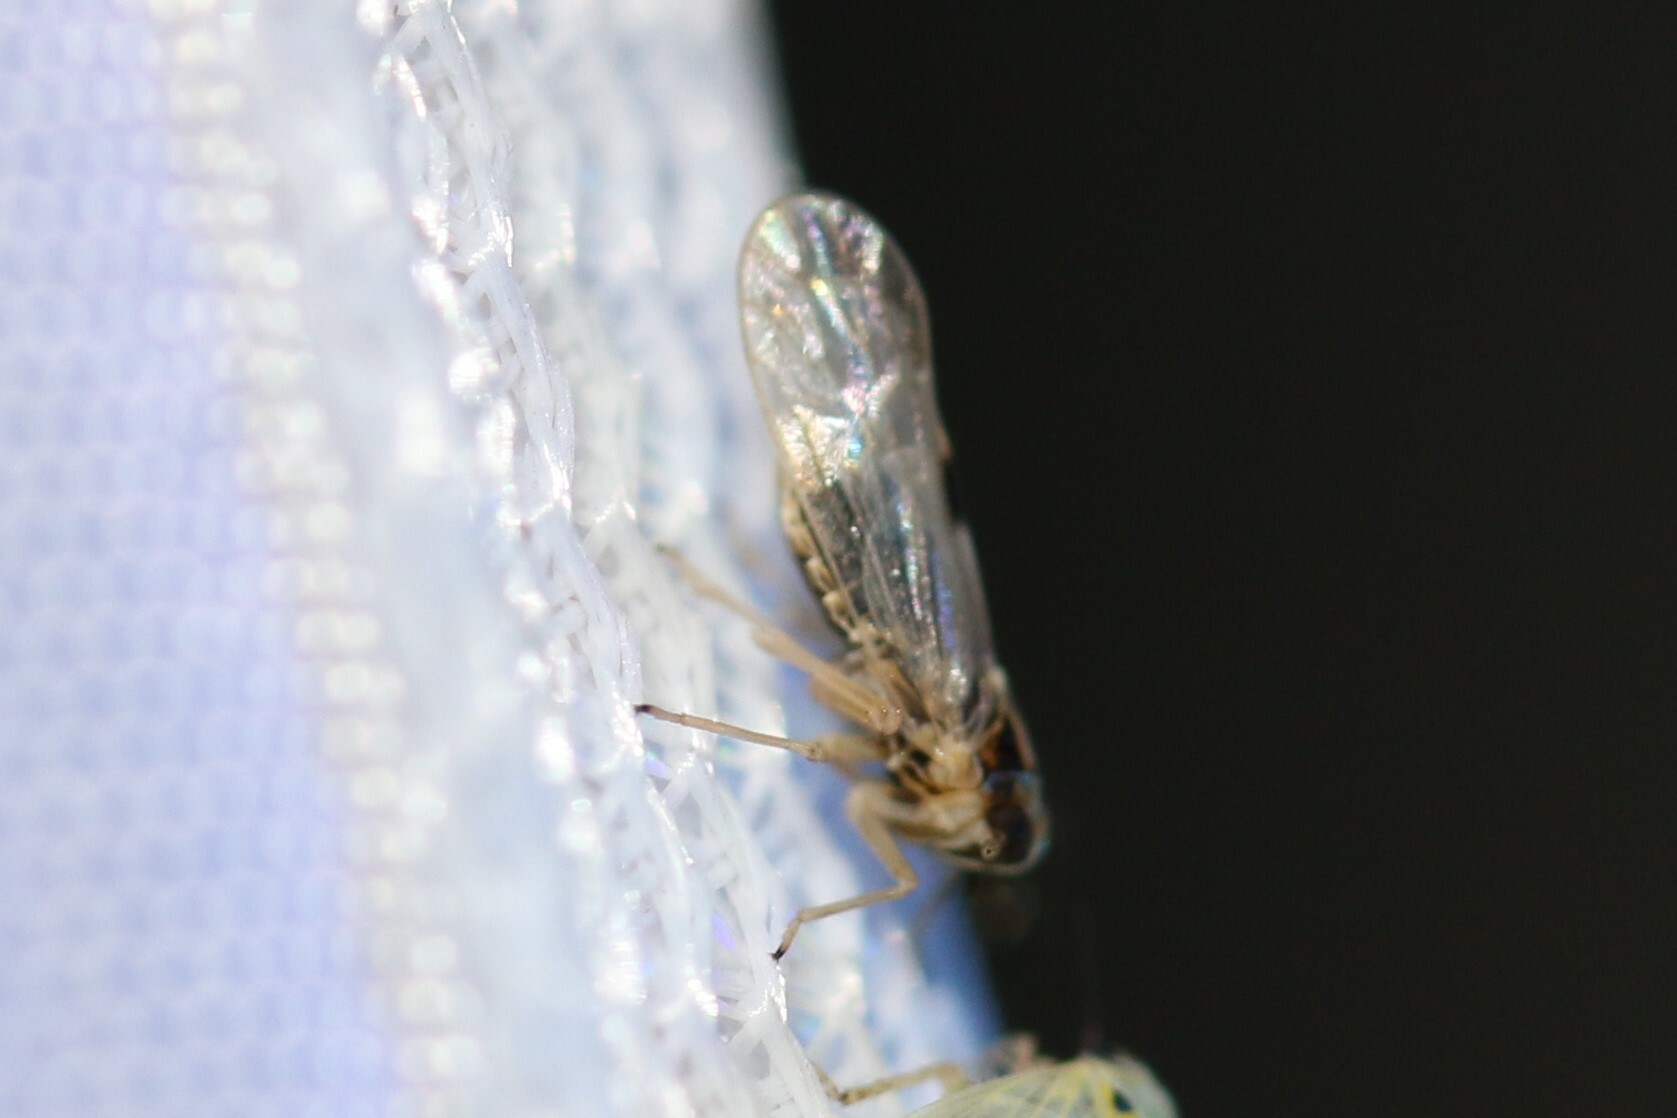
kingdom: Animalia
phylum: Arthropoda
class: Insecta
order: Hemiptera
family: Delphacidae
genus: Laodelphax
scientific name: Laodelphax striatellus
